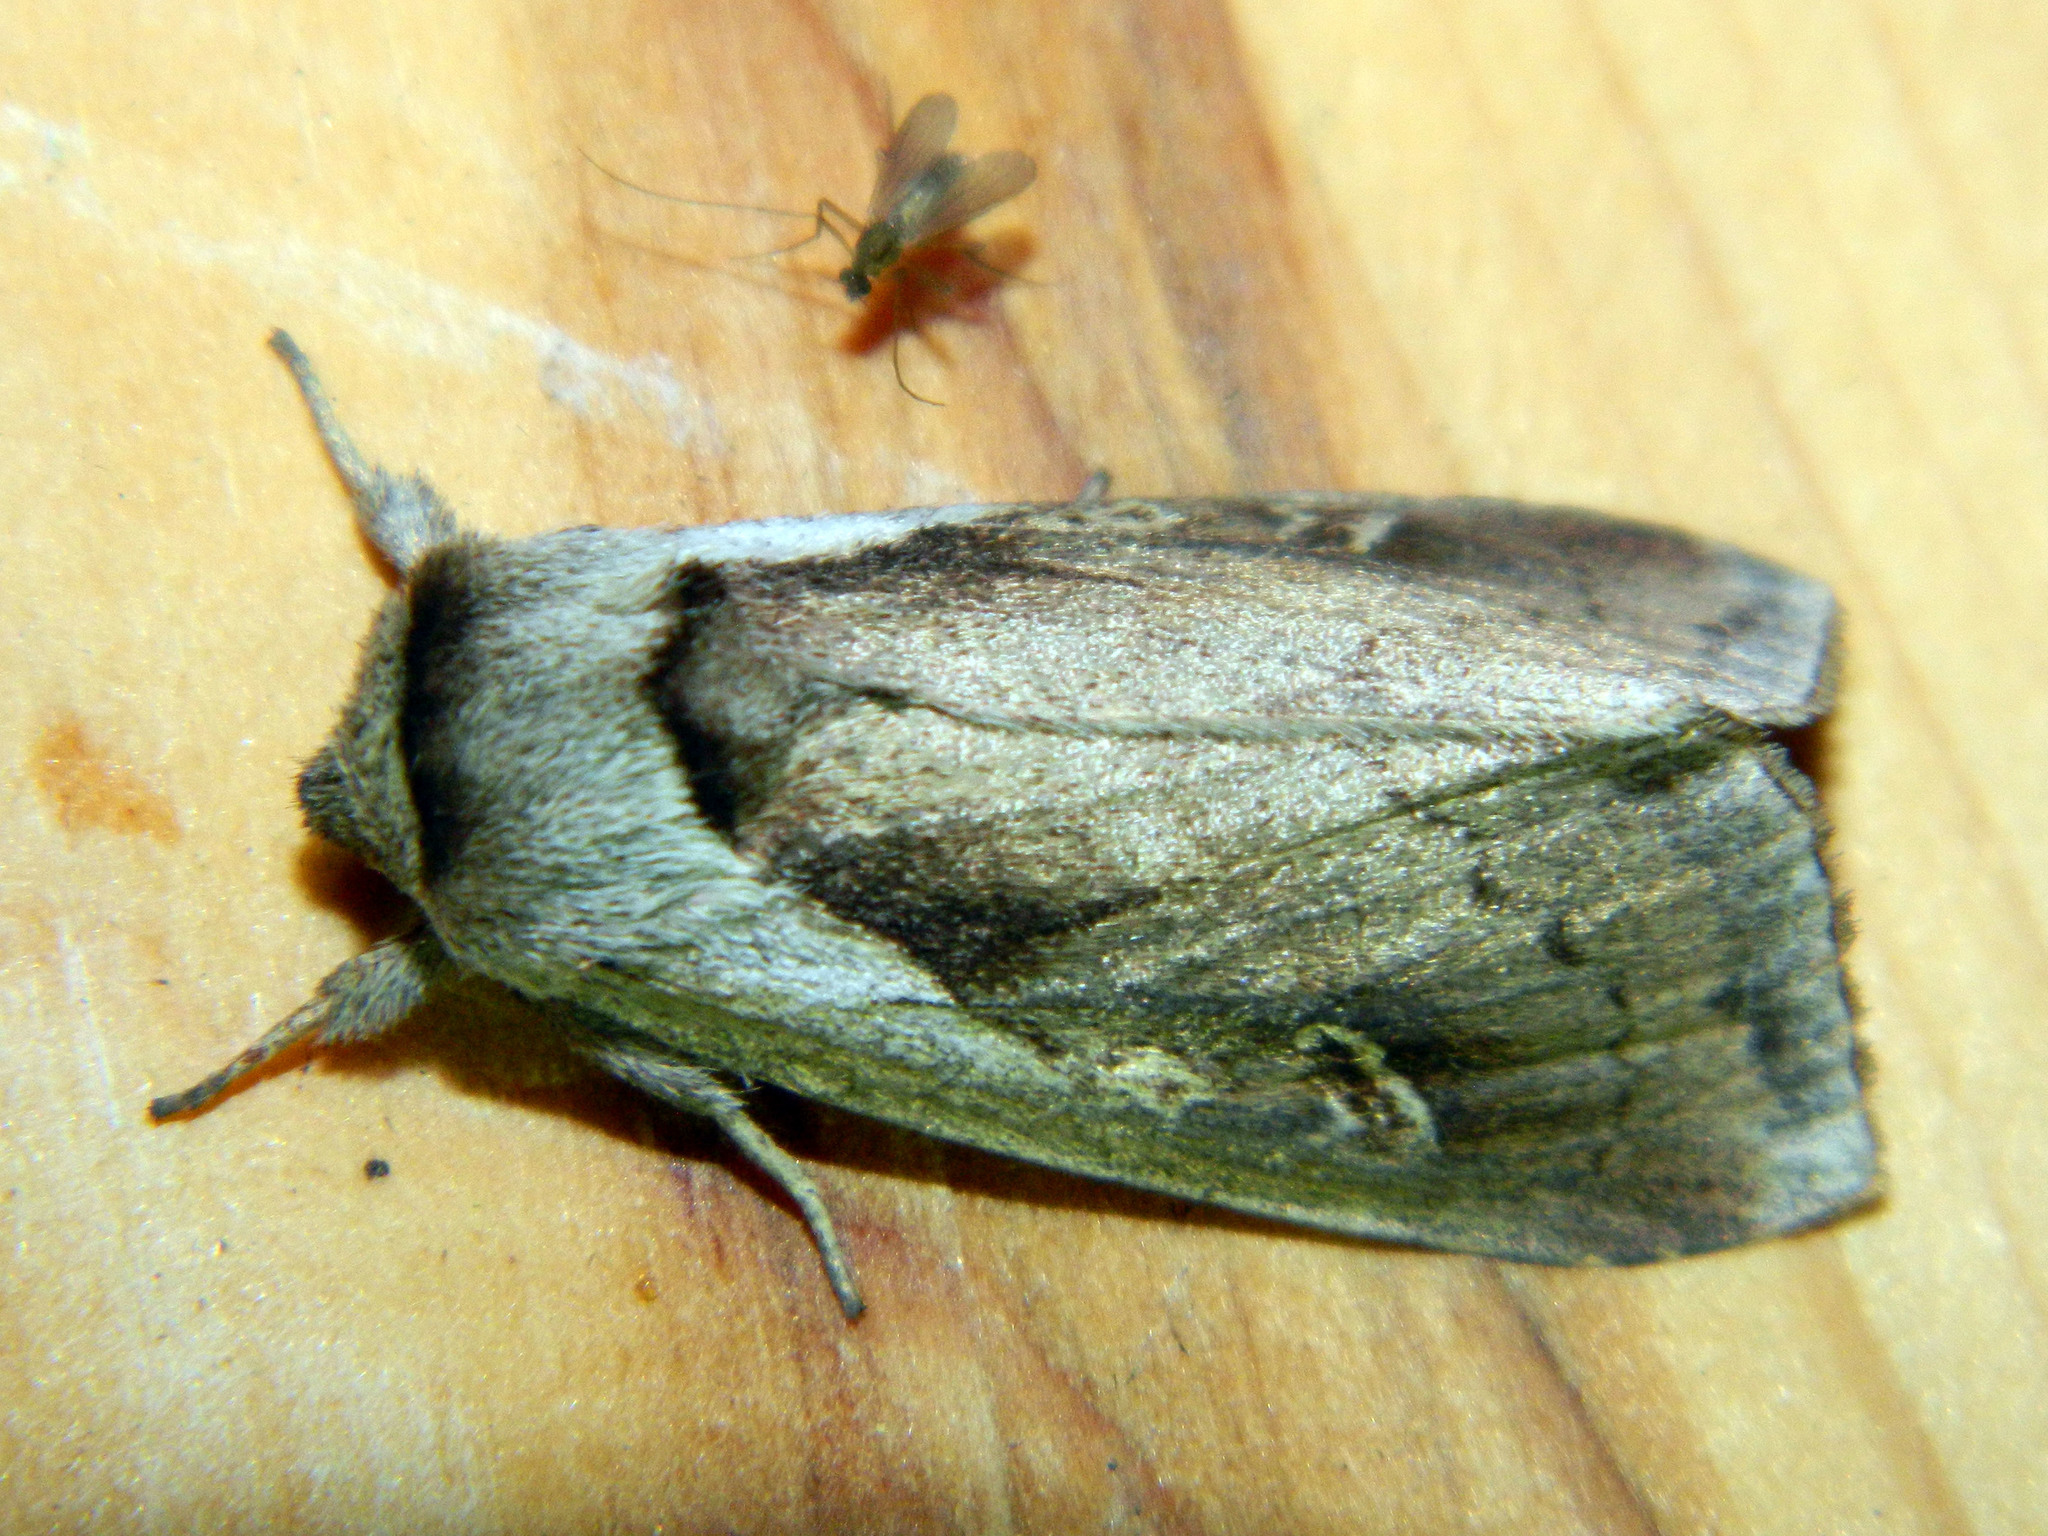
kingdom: Animalia
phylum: Arthropoda
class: Insecta
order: Lepidoptera
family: Noctuidae
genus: Bellura
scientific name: Bellura obliqua
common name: Cattail borer moth
